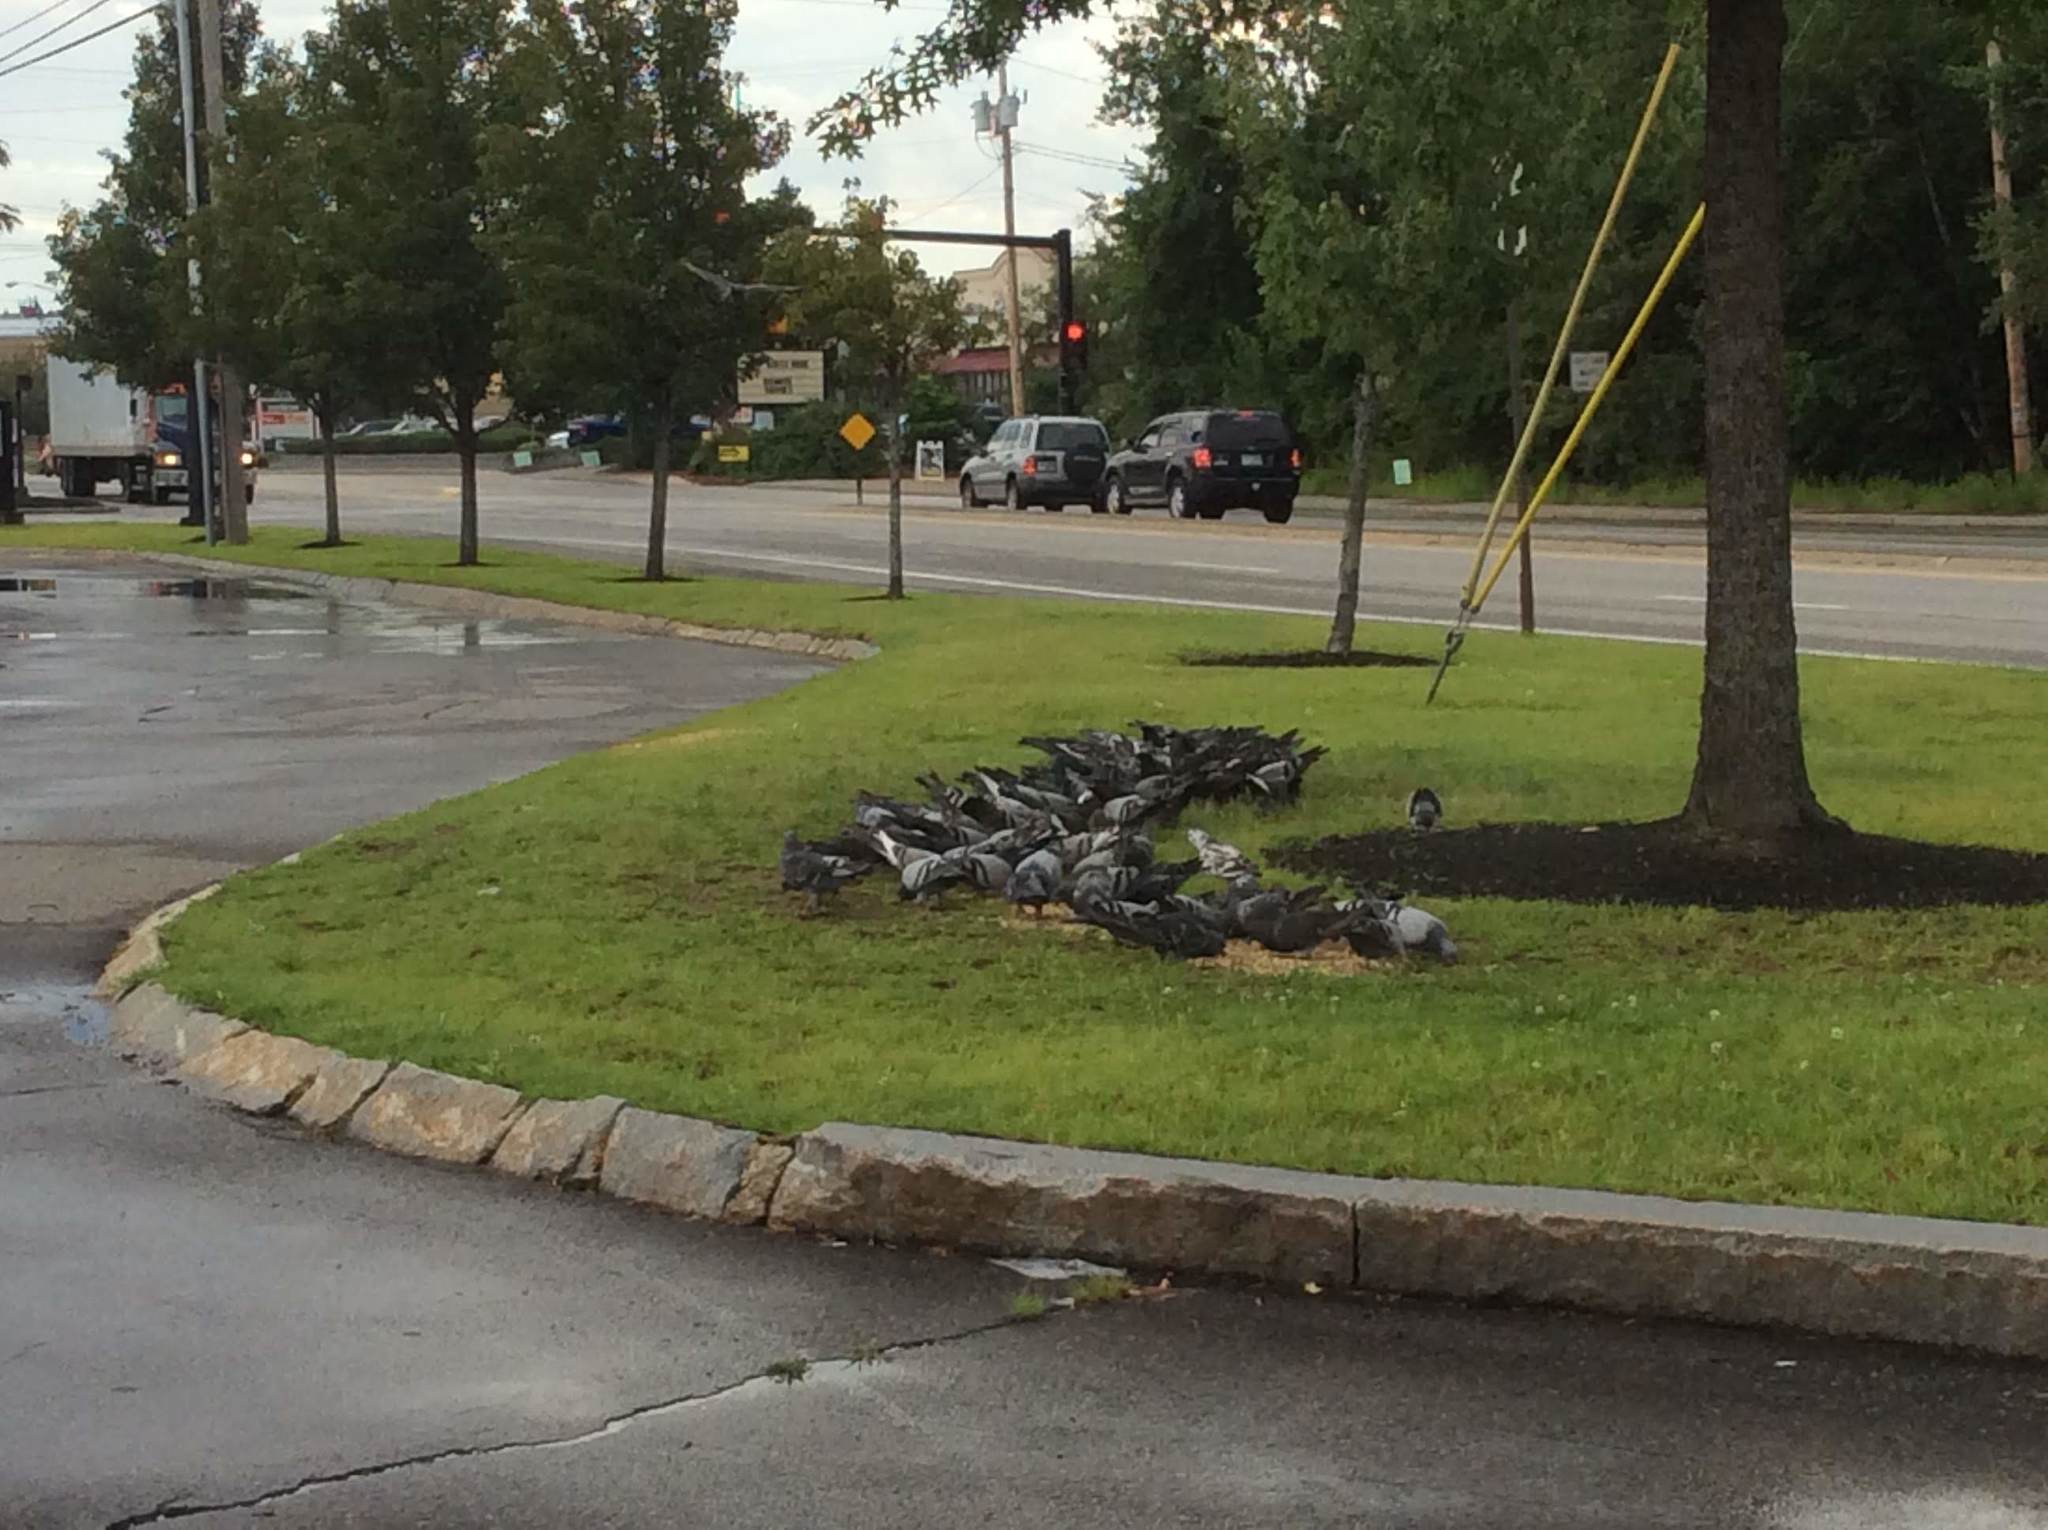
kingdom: Animalia
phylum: Chordata
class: Aves
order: Columbiformes
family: Columbidae
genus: Columba
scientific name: Columba livia
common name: Rock pigeon
